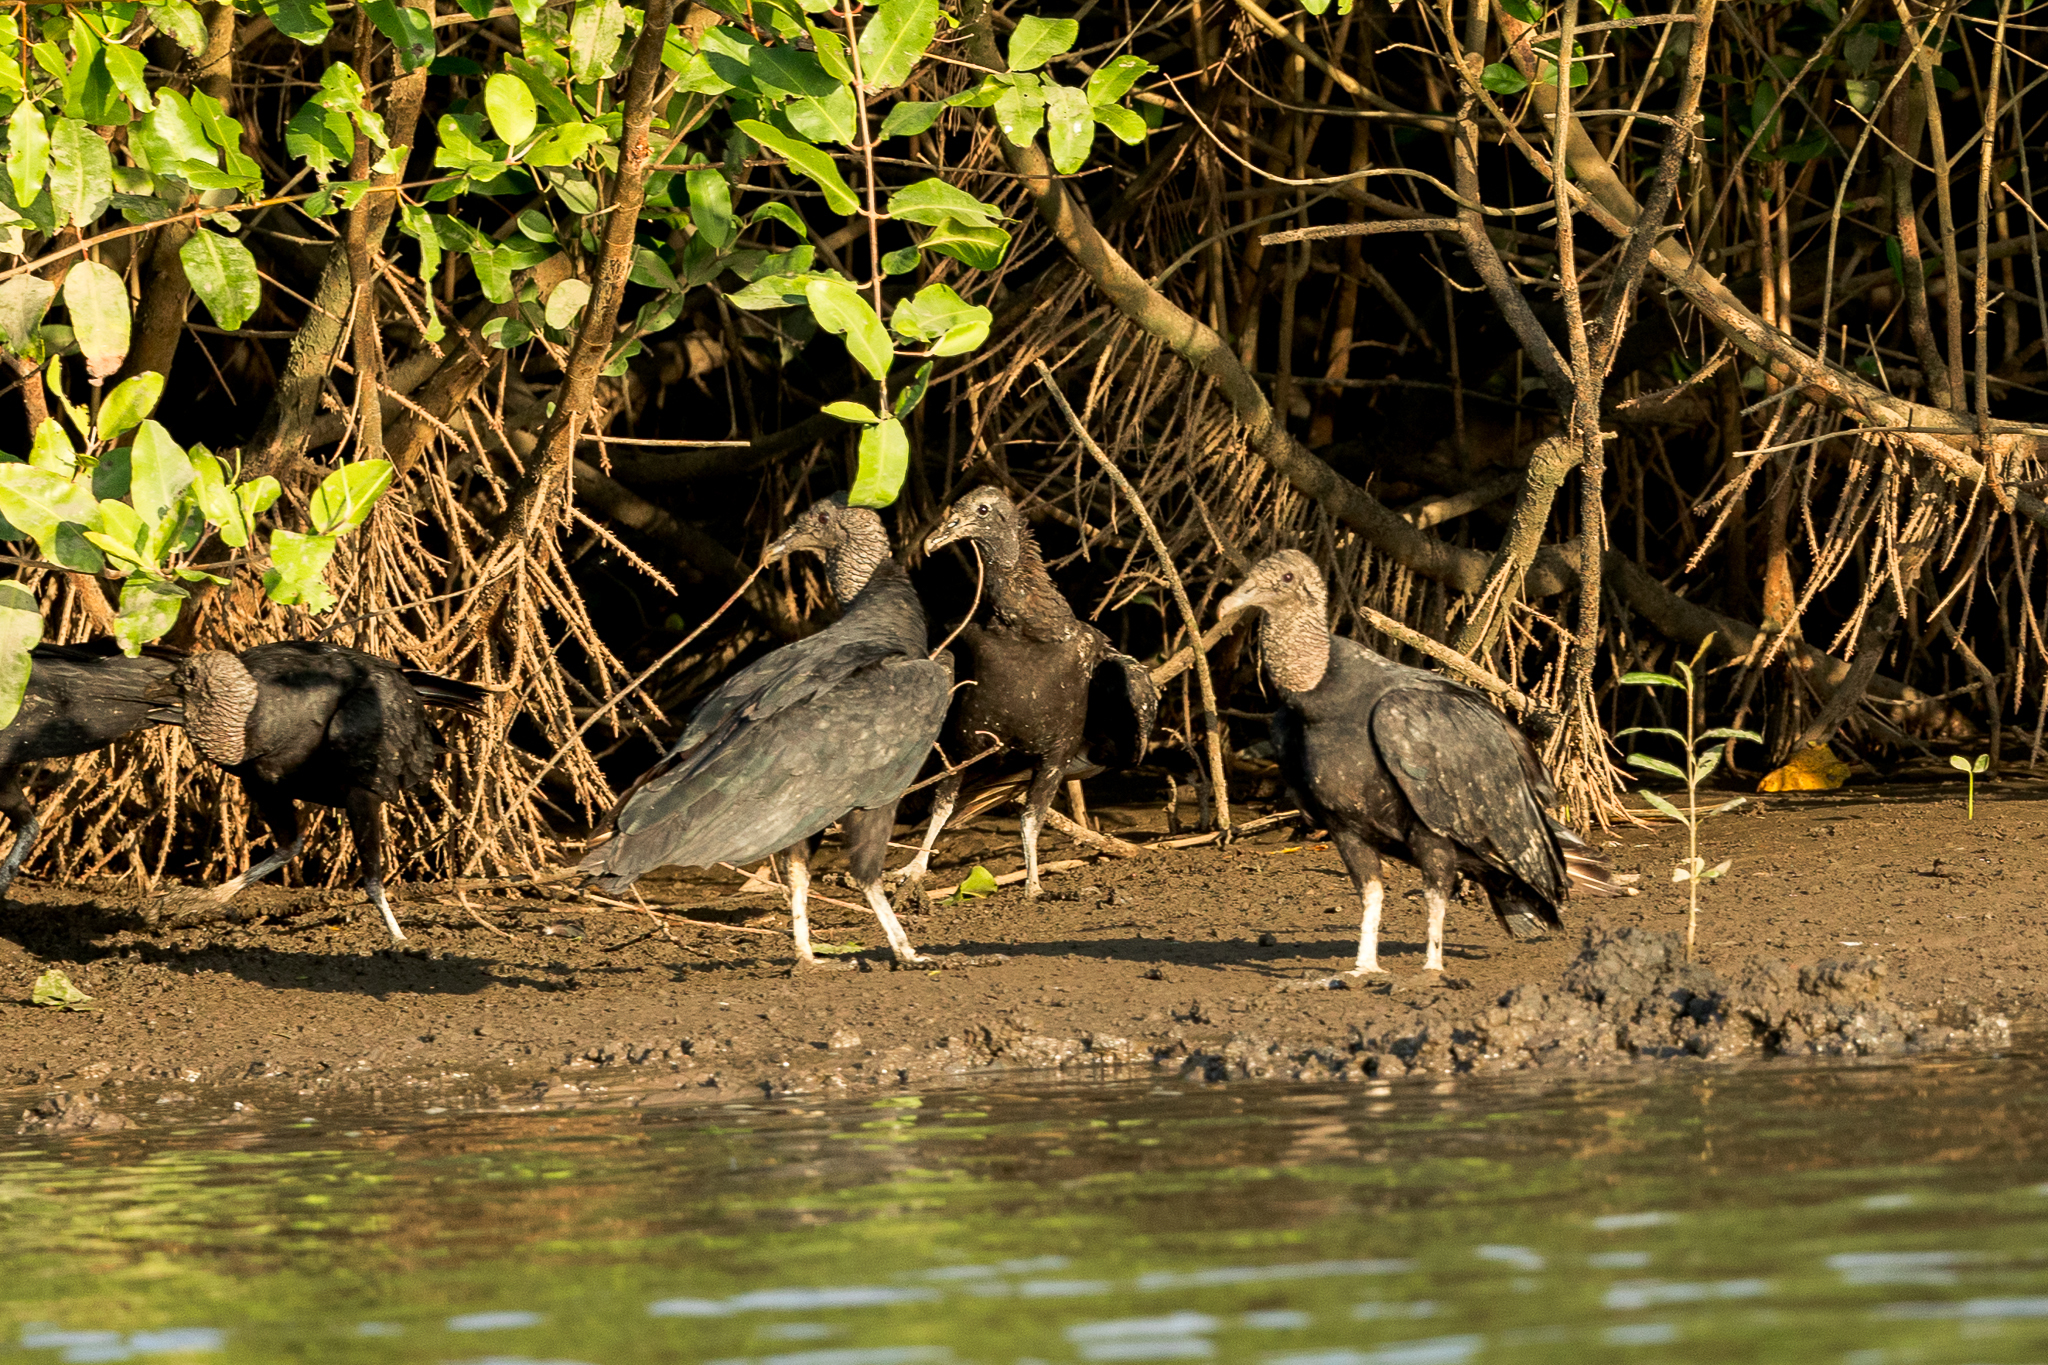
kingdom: Animalia
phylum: Chordata
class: Aves
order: Accipitriformes
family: Cathartidae
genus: Coragyps
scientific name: Coragyps atratus
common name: Black vulture
